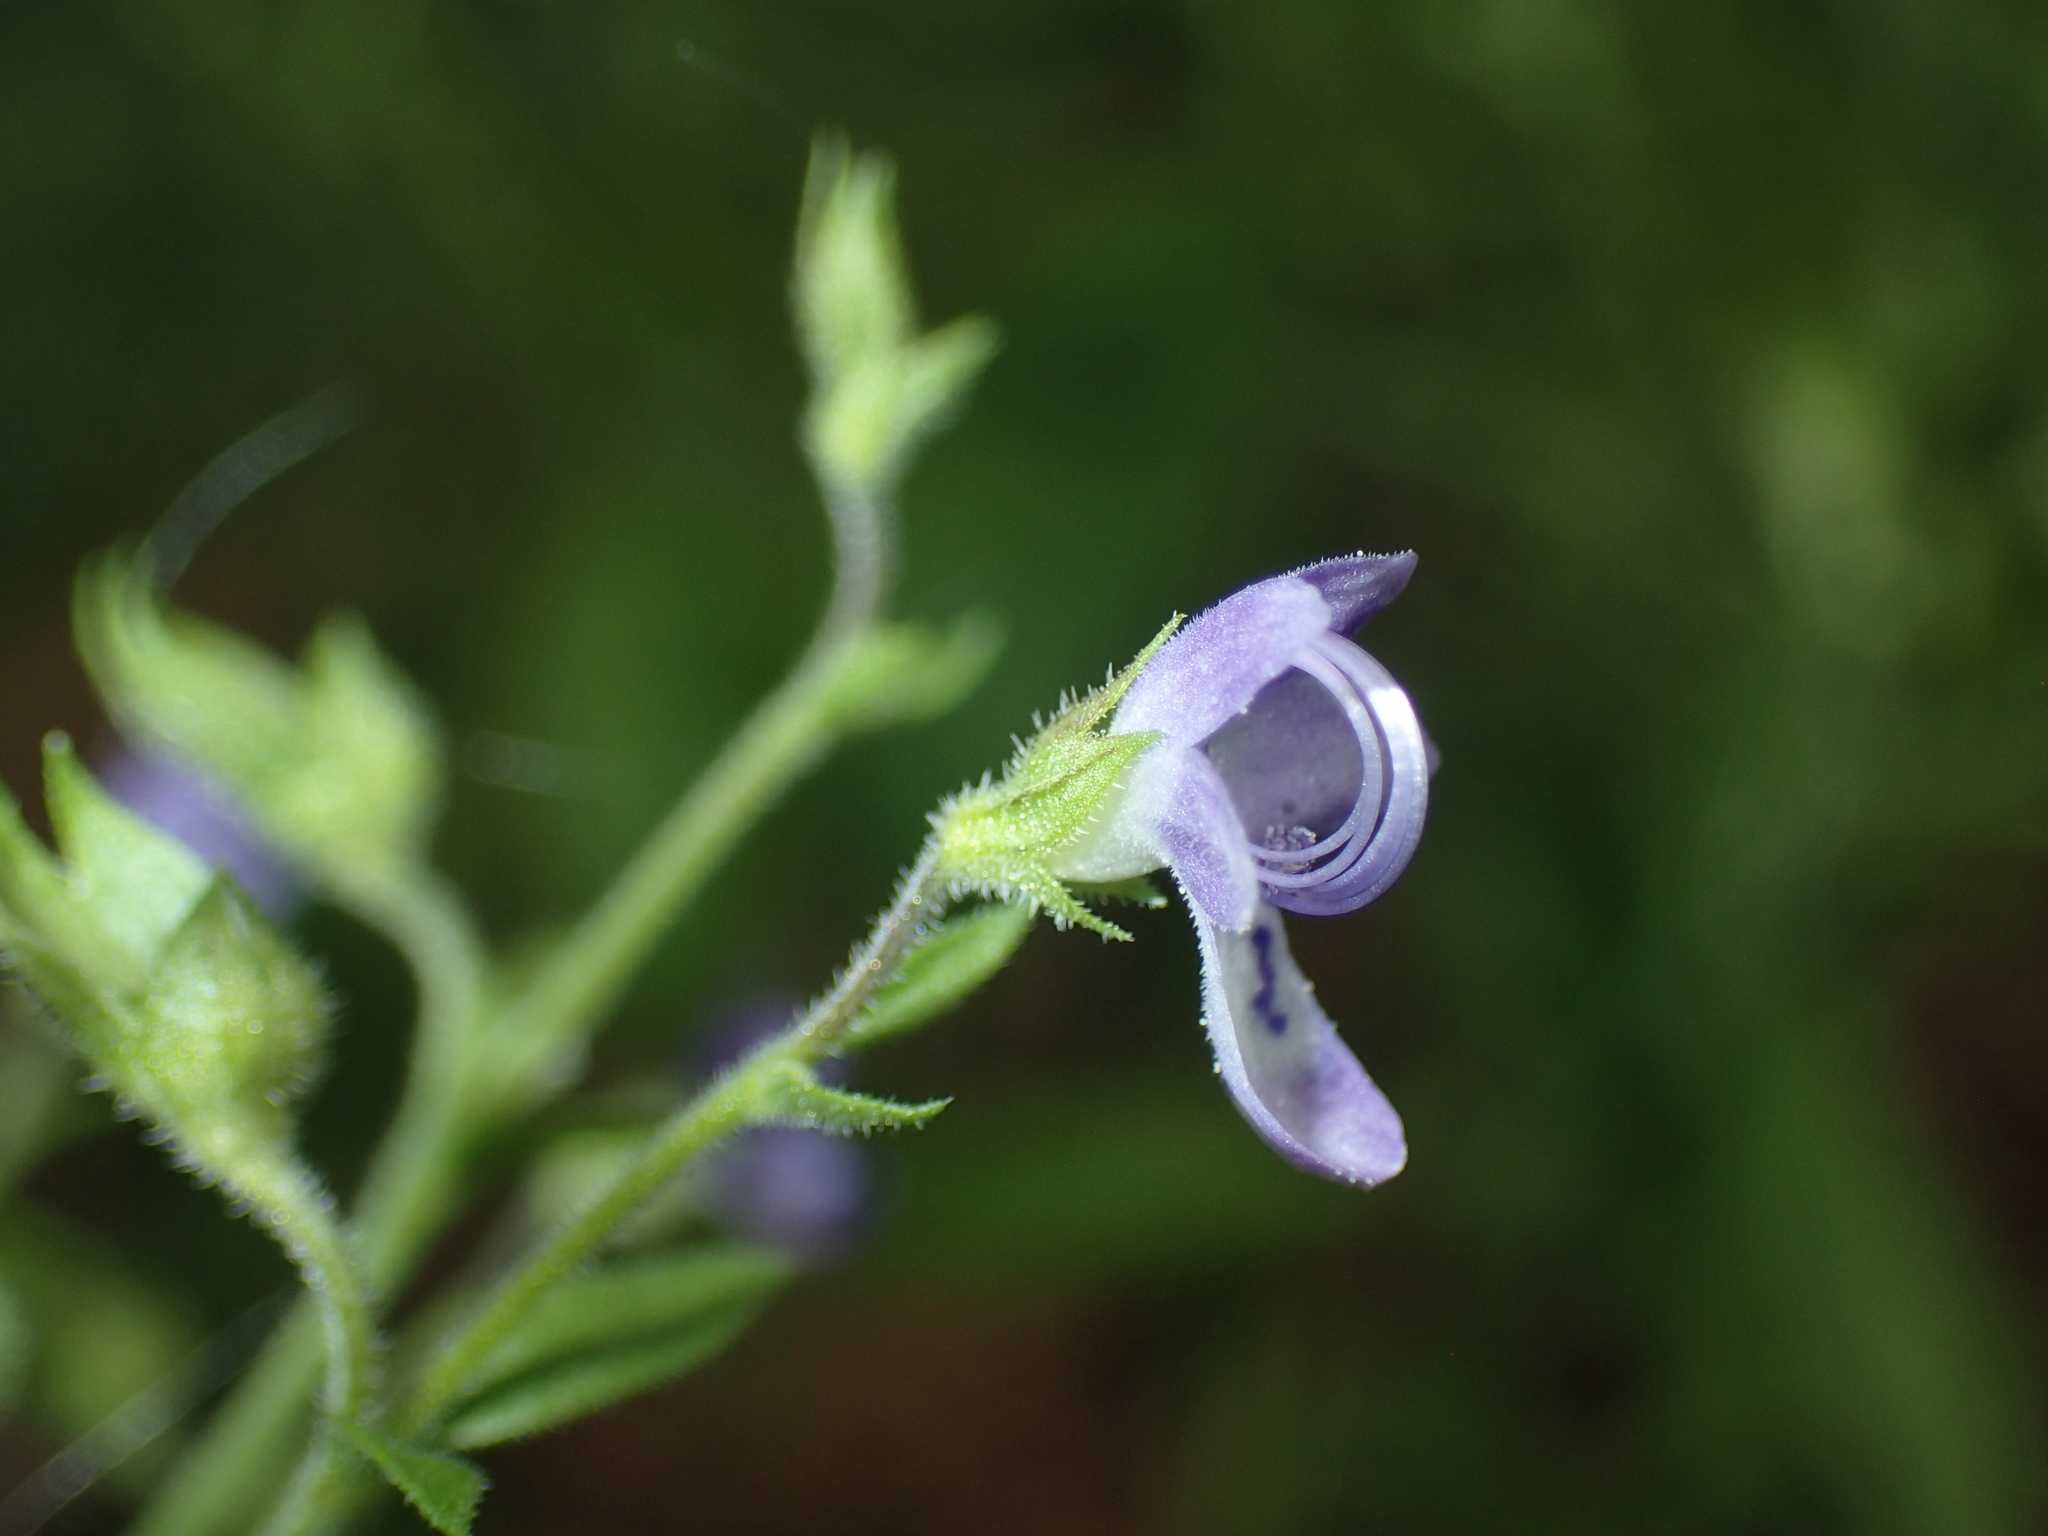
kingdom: Plantae
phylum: Tracheophyta
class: Magnoliopsida
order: Lamiales
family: Lamiaceae
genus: Trichostema
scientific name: Trichostema dichotomum
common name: Bastard pennyroyal
